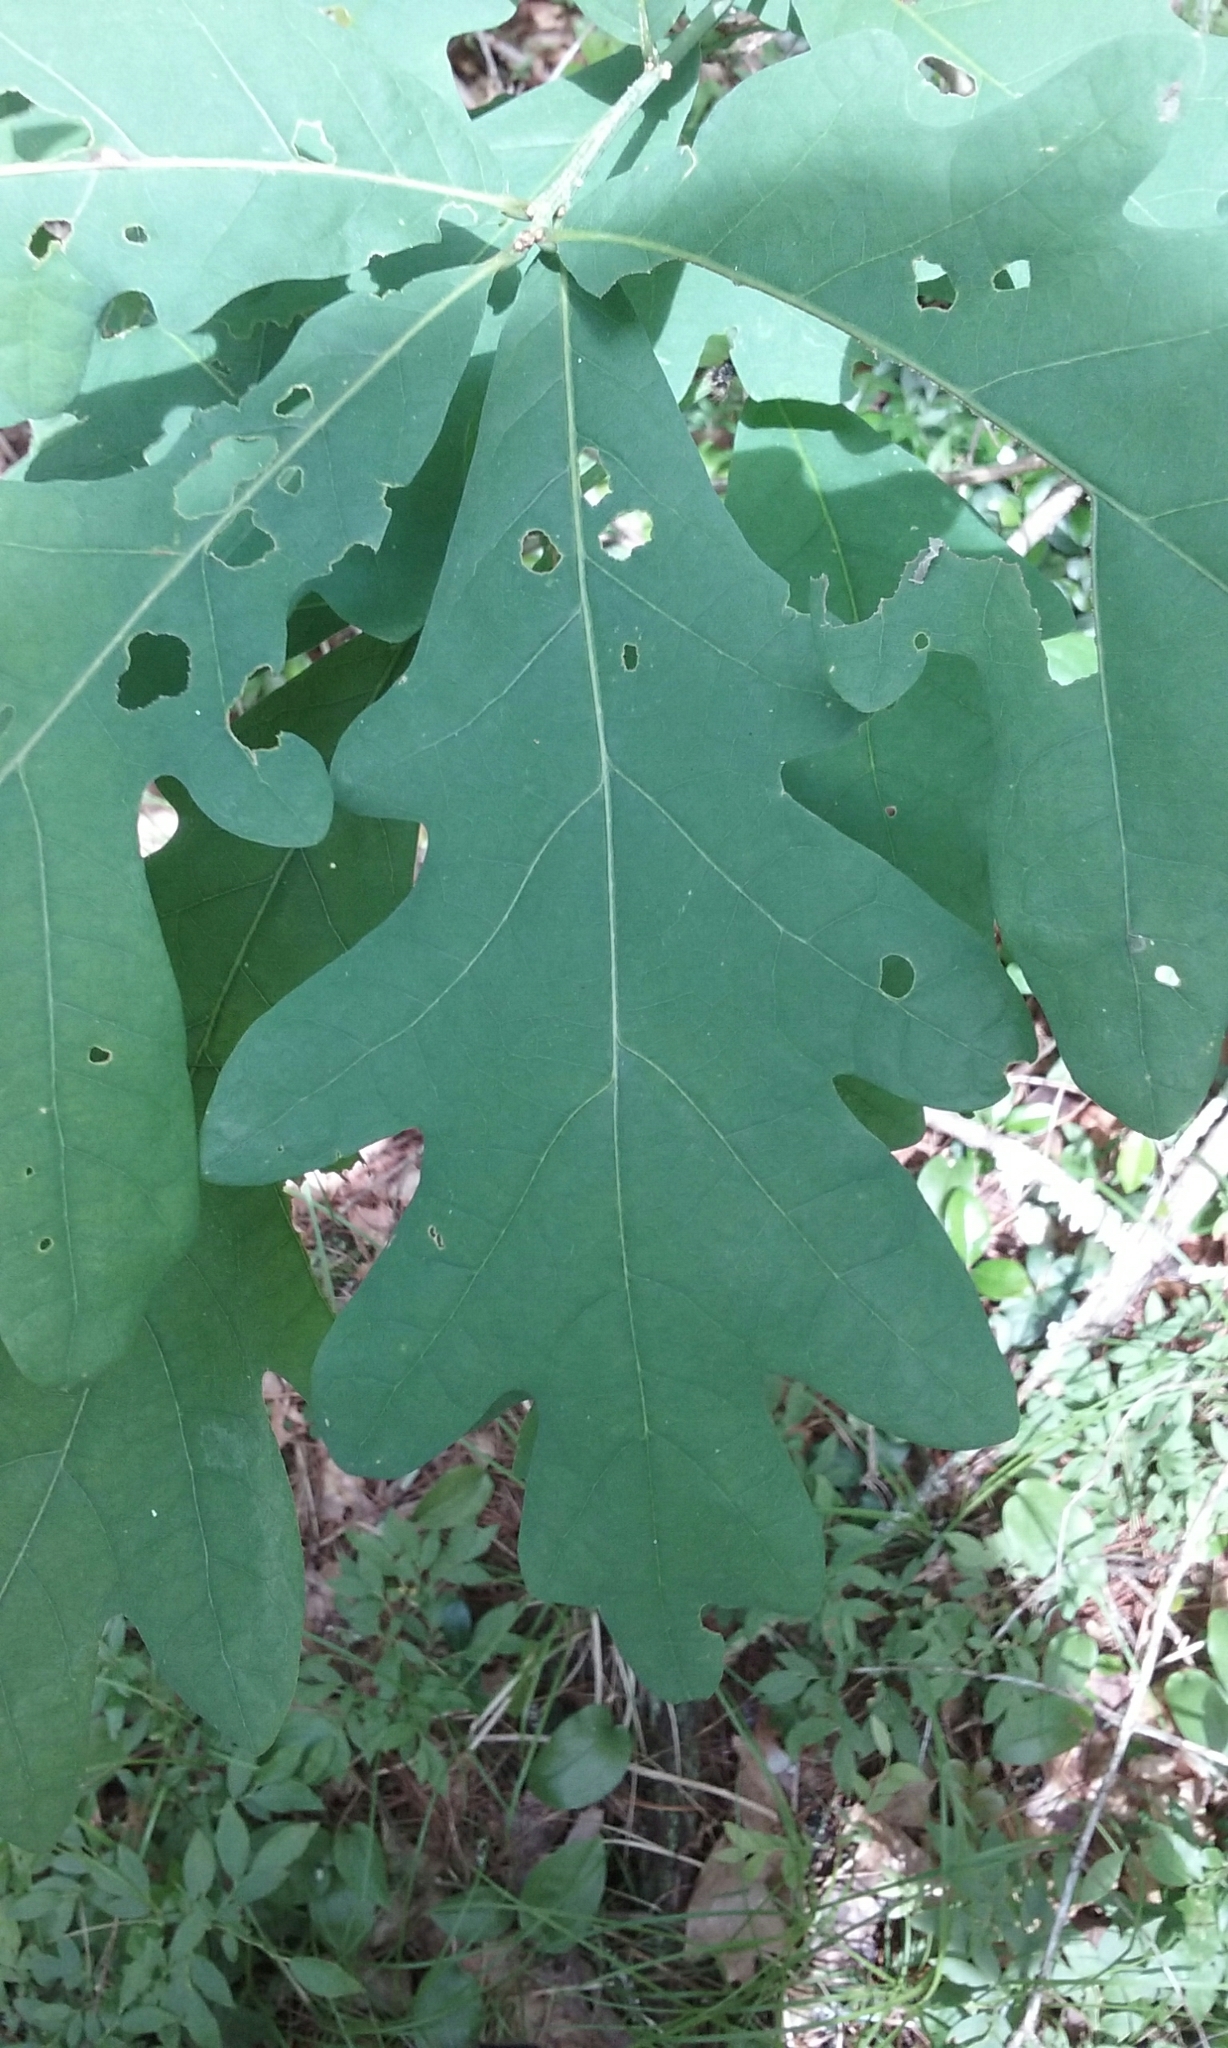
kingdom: Plantae
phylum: Tracheophyta
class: Magnoliopsida
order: Fagales
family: Fagaceae
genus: Quercus
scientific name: Quercus alba
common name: White oak
